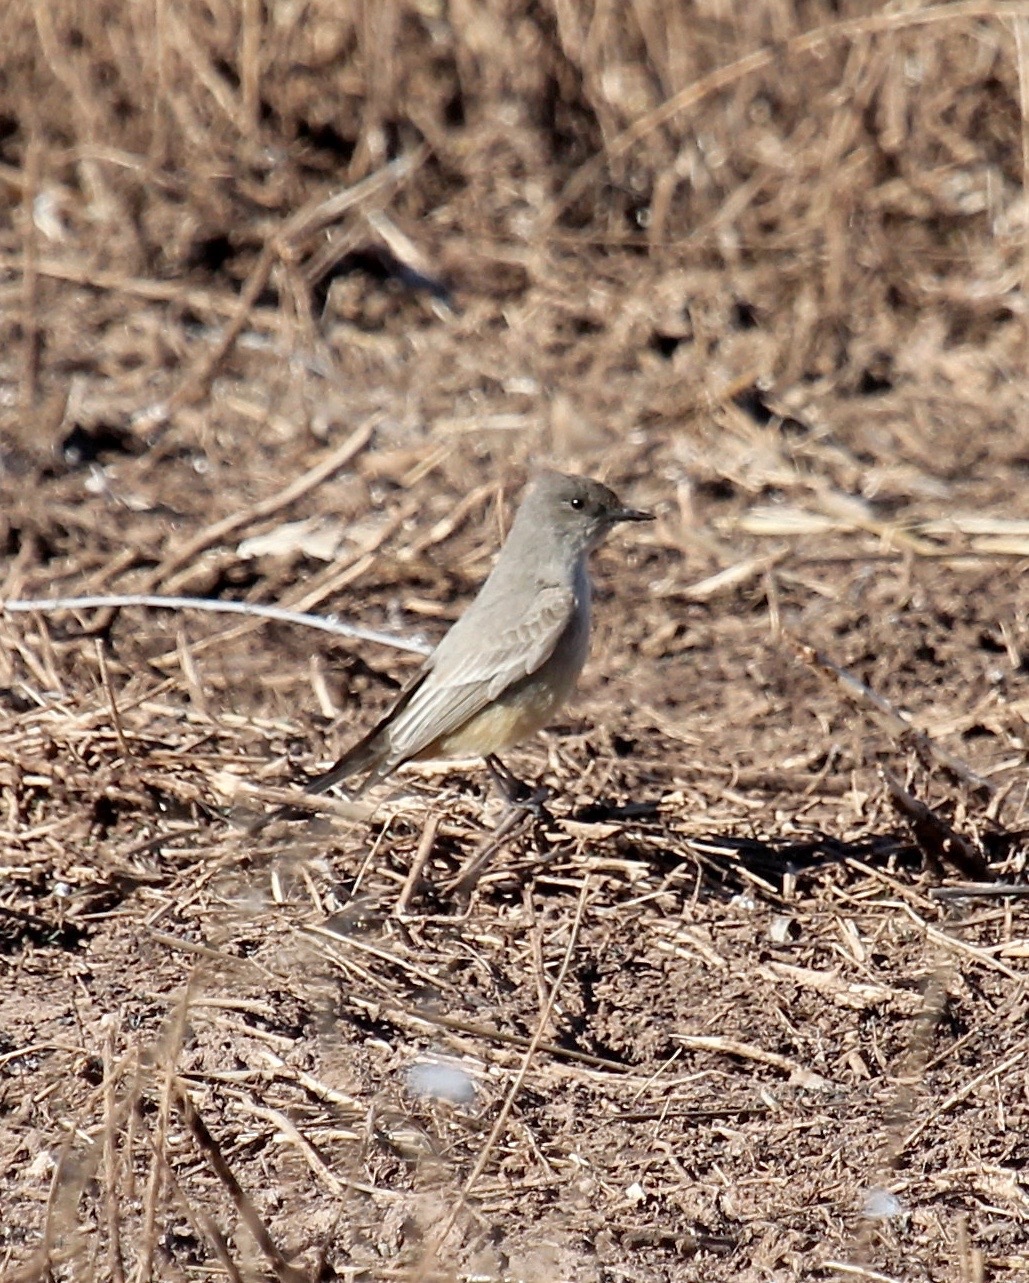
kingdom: Animalia
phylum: Chordata
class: Aves
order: Passeriformes
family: Tyrannidae
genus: Sayornis
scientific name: Sayornis saya
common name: Say's phoebe
